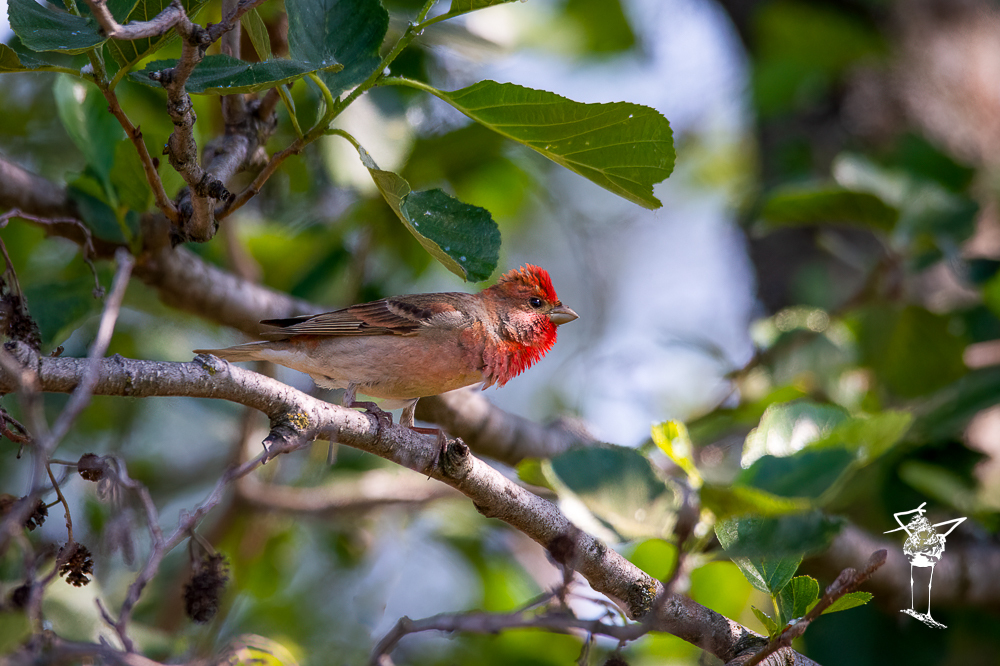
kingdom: Animalia
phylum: Chordata
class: Aves
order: Passeriformes
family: Fringillidae
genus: Carpodacus
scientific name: Carpodacus erythrinus
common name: Common rosefinch
